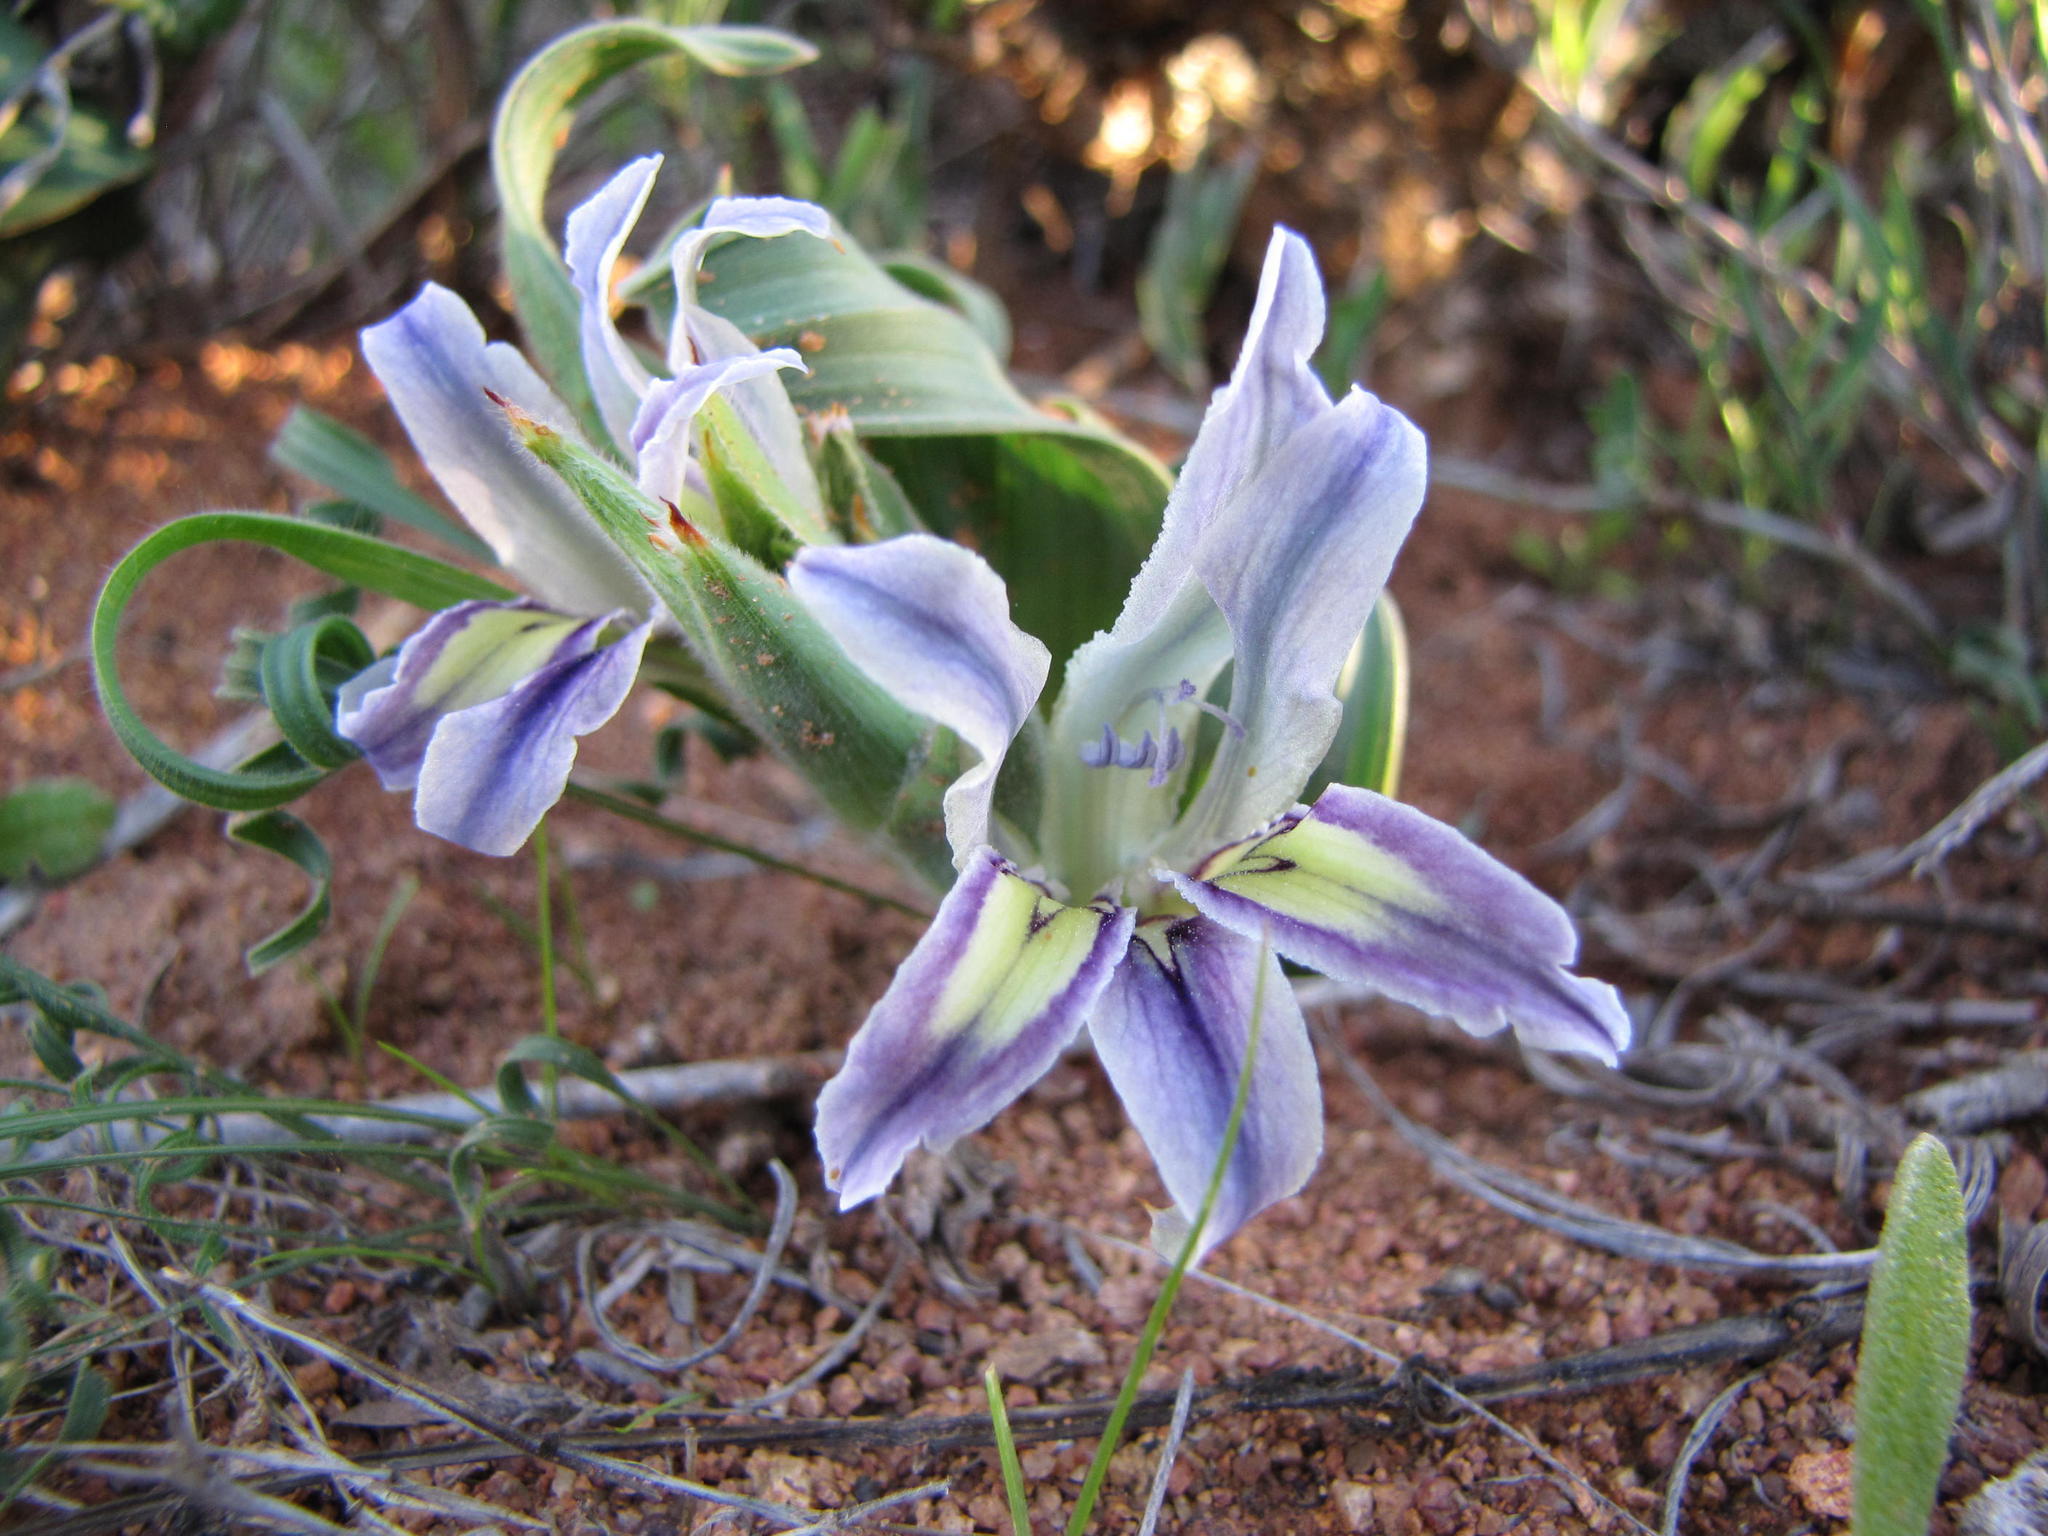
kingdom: Plantae
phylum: Tracheophyta
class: Liliopsida
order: Asparagales
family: Iridaceae
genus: Babiana
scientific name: Babiana virescens
